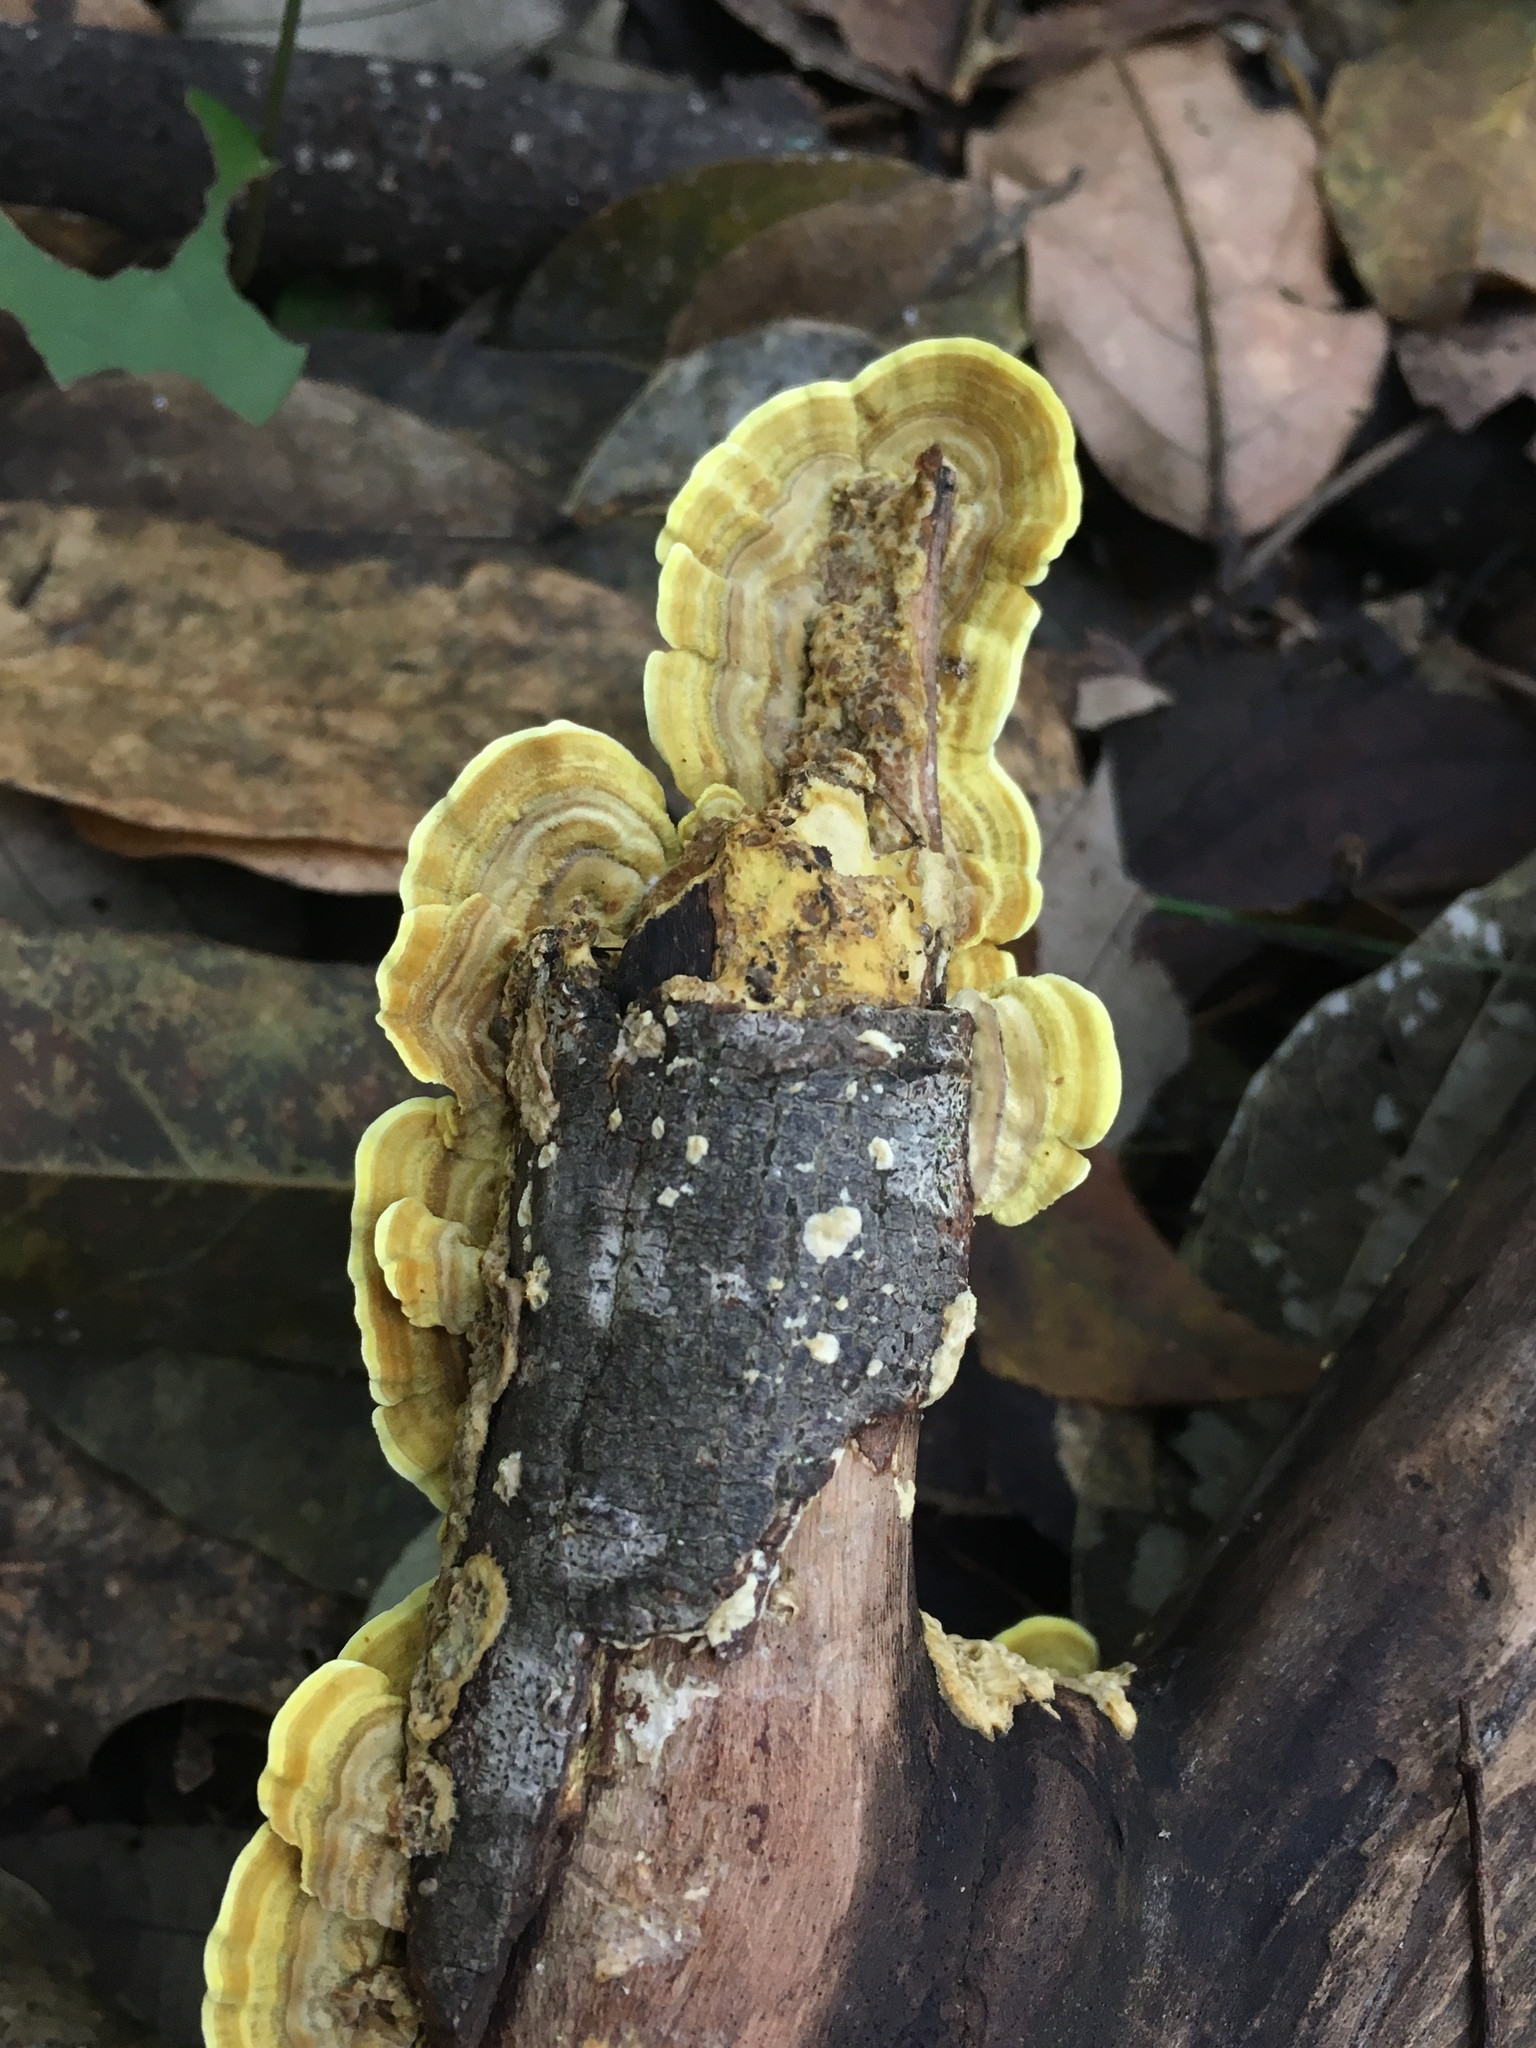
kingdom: Fungi
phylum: Basidiomycota
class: Agaricomycetes
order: Polyporales
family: Polyporaceae
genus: Cubamyces
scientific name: Cubamyces flavidus
